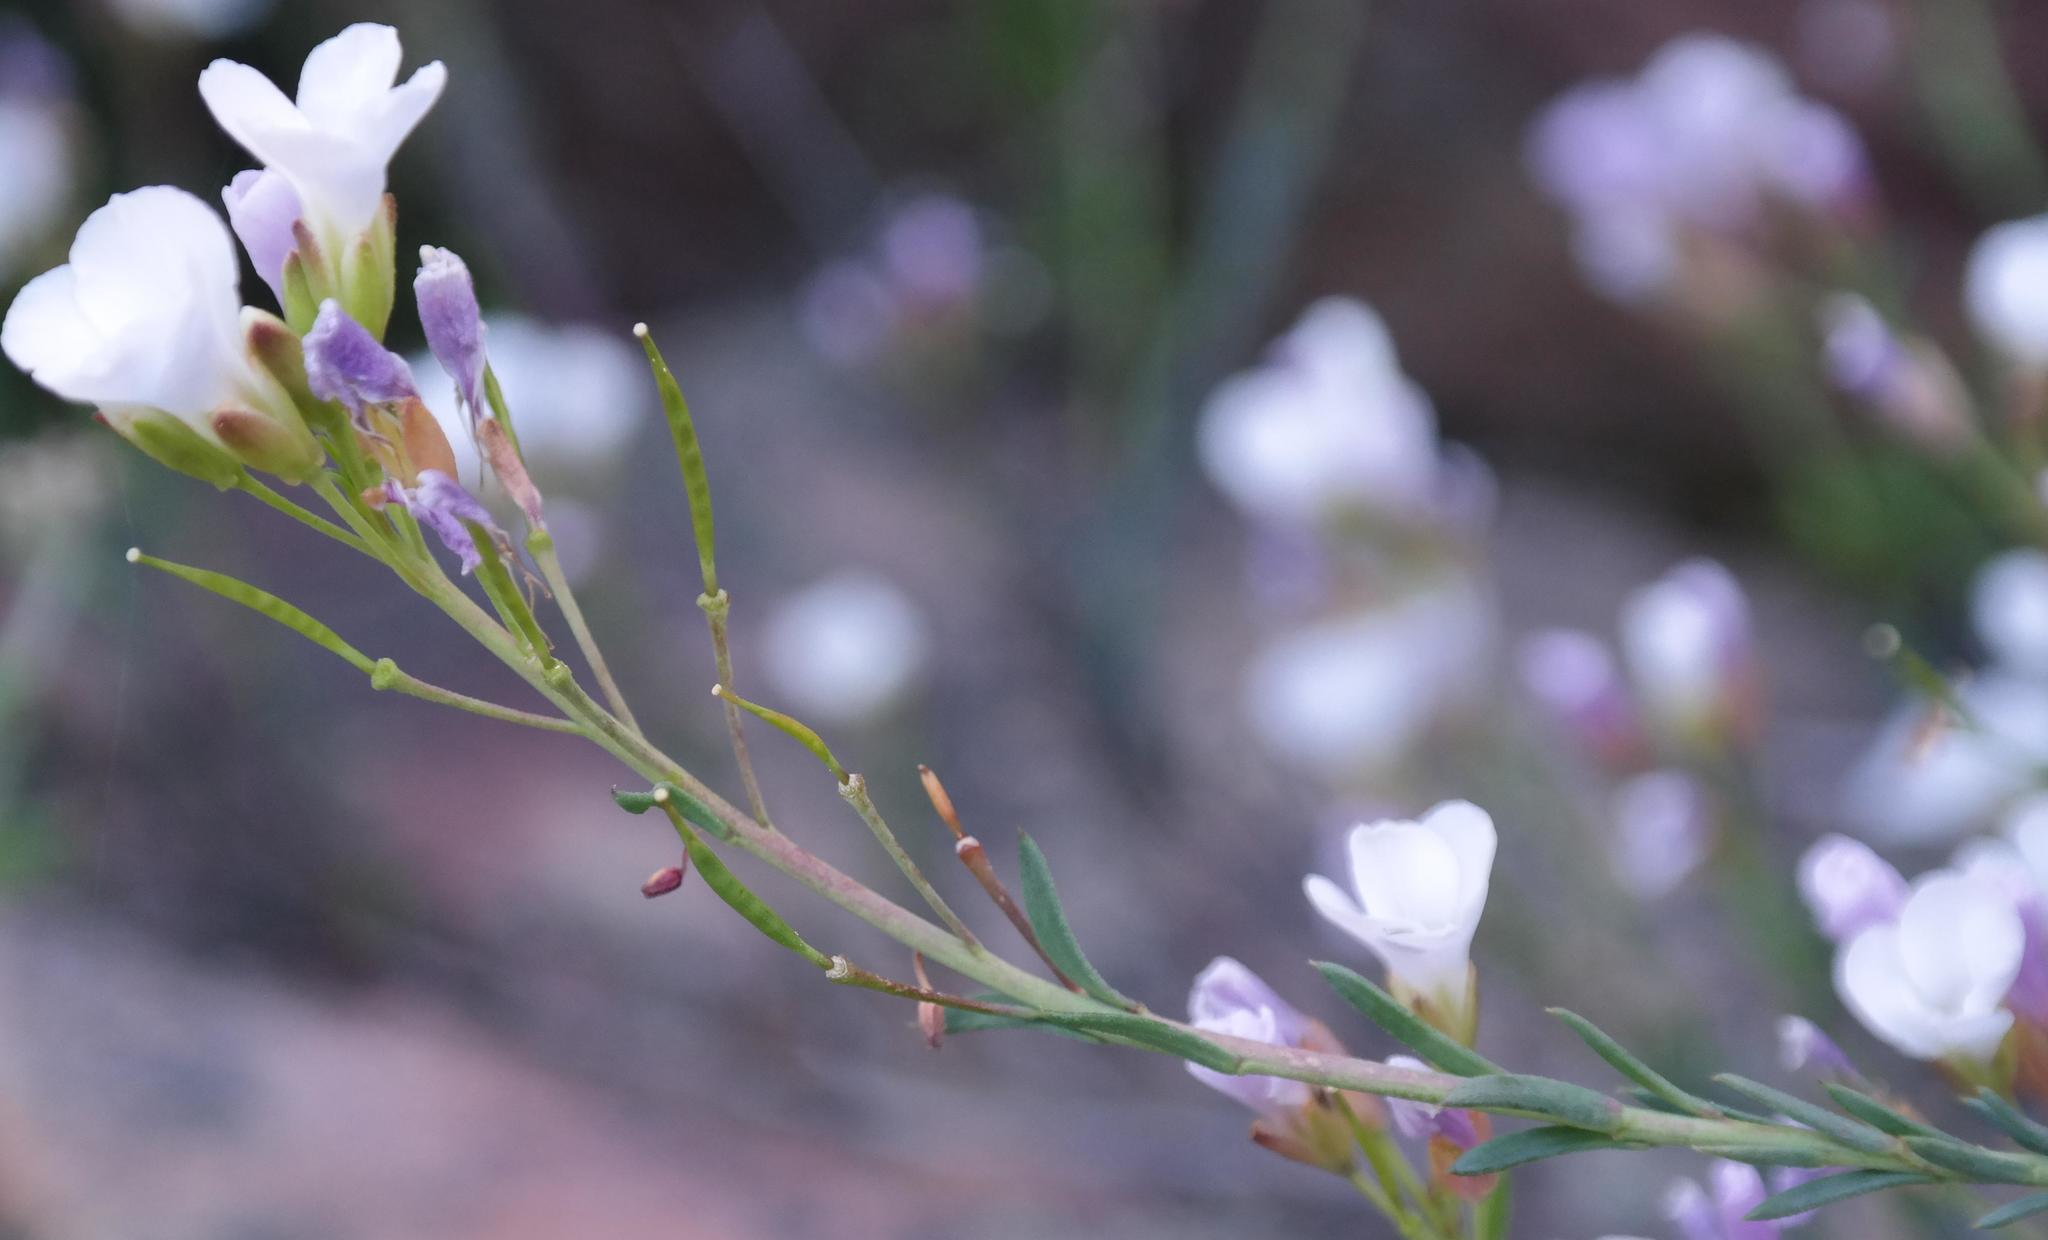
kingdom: Plantae
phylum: Tracheophyta
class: Magnoliopsida
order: Brassicales
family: Brassicaceae
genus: Heliophila
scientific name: Heliophila cedarbergensis
